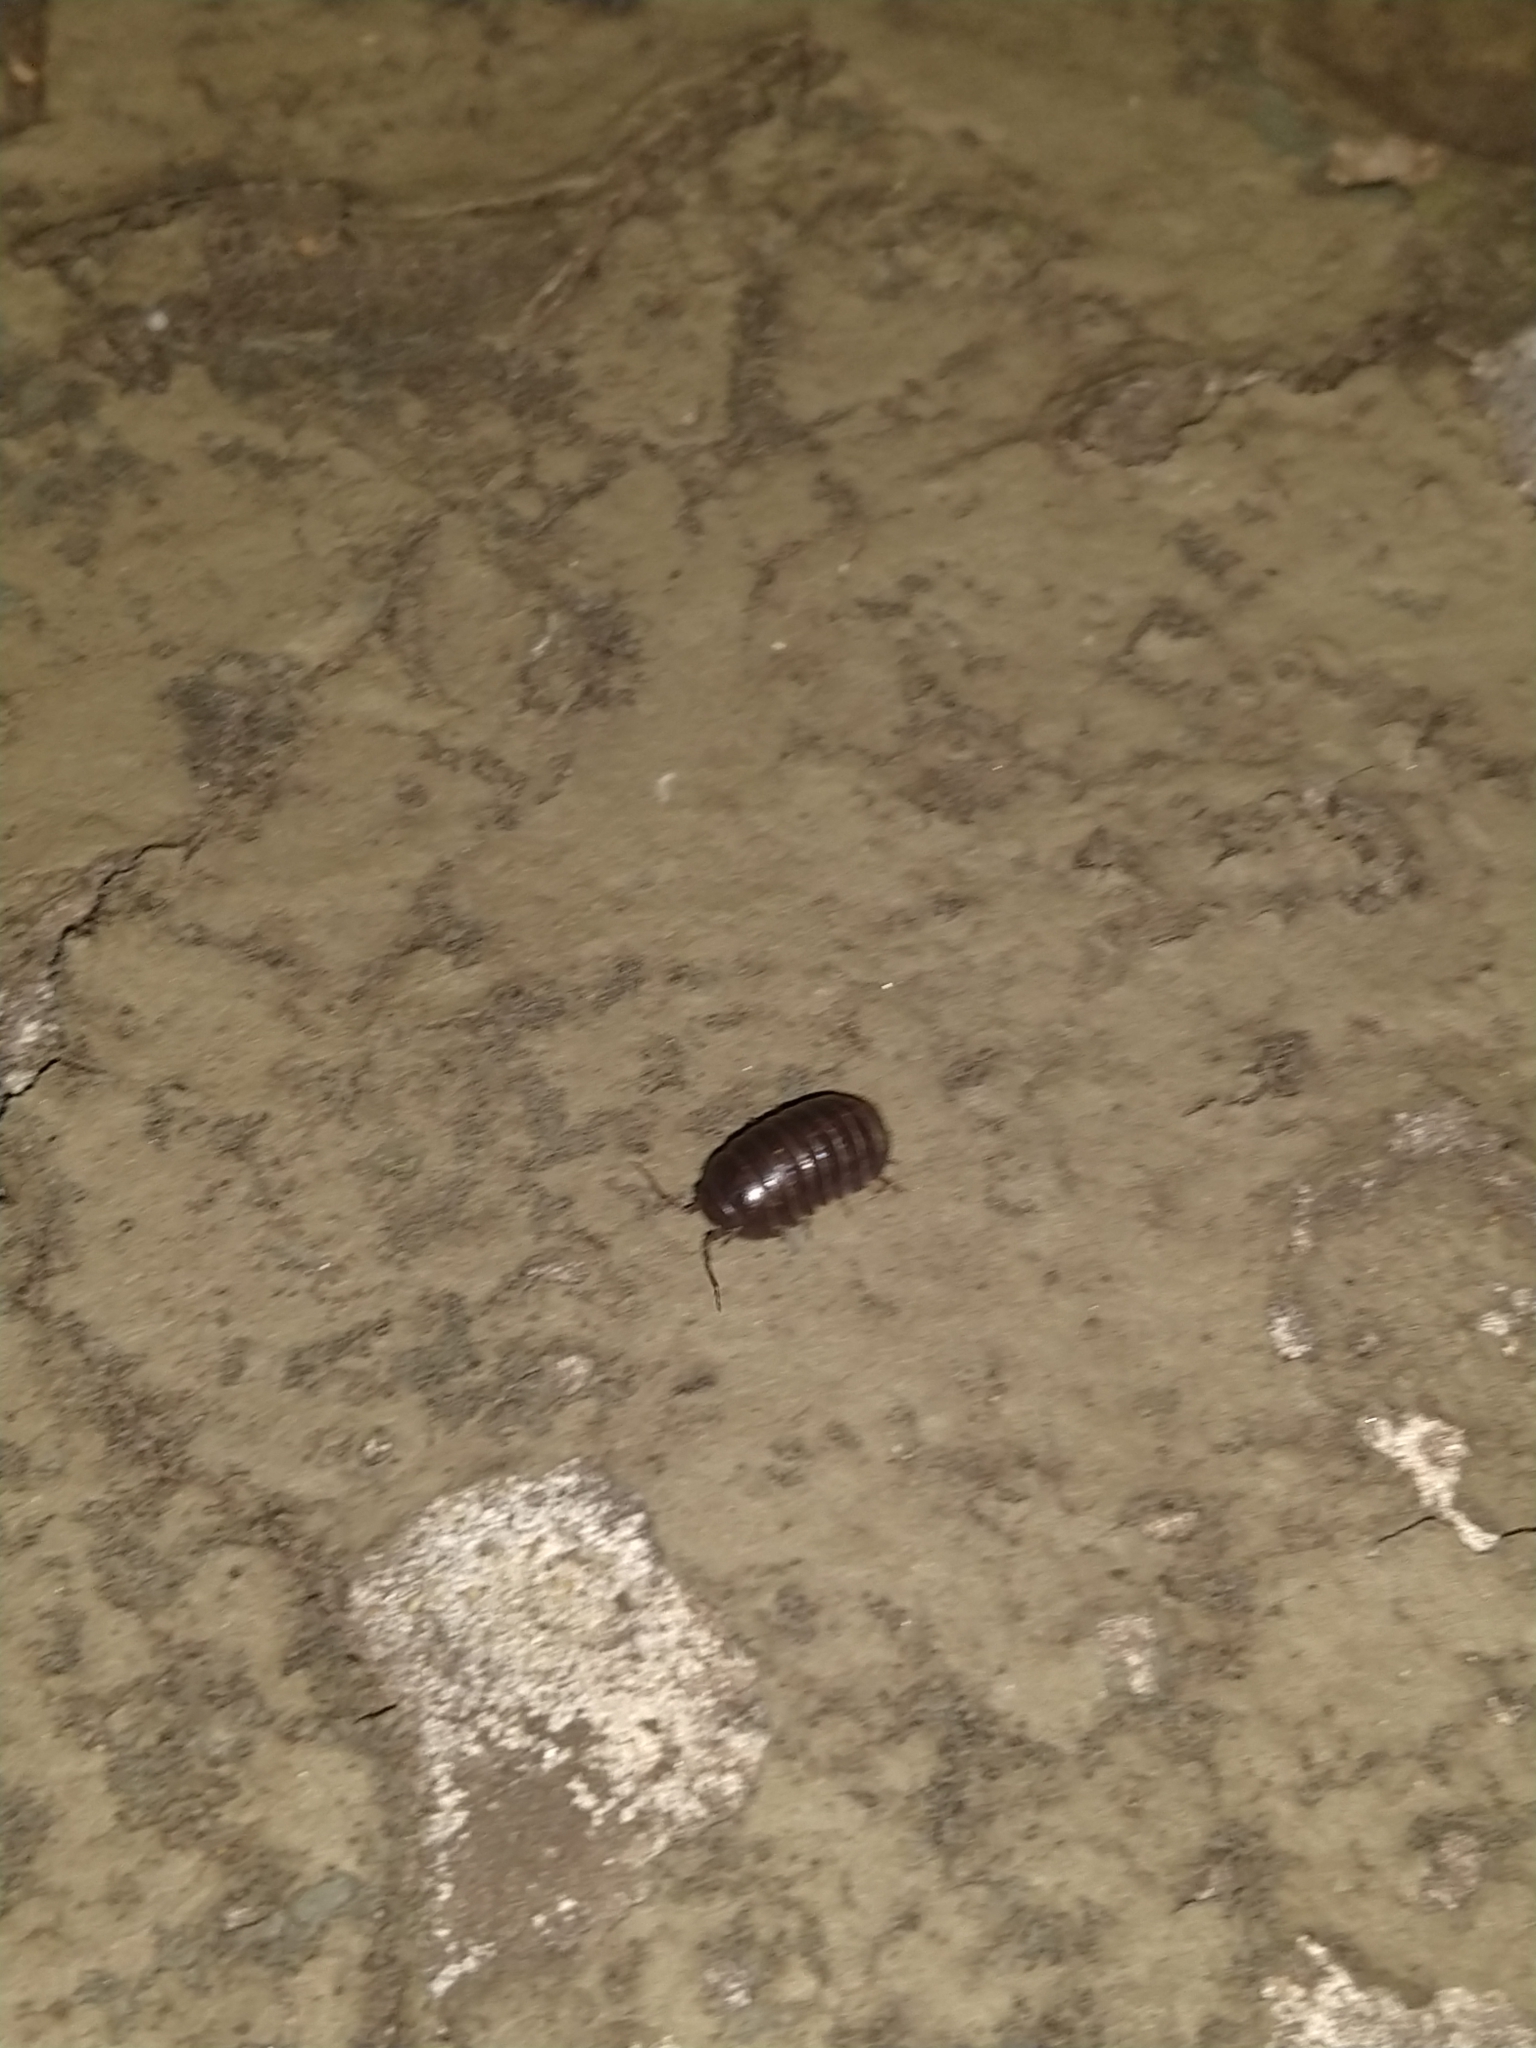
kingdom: Animalia
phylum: Arthropoda
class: Malacostraca
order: Isopoda
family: Armadillidiidae
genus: Armadillidium
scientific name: Armadillidium vulgare
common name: Common pill woodlouse
